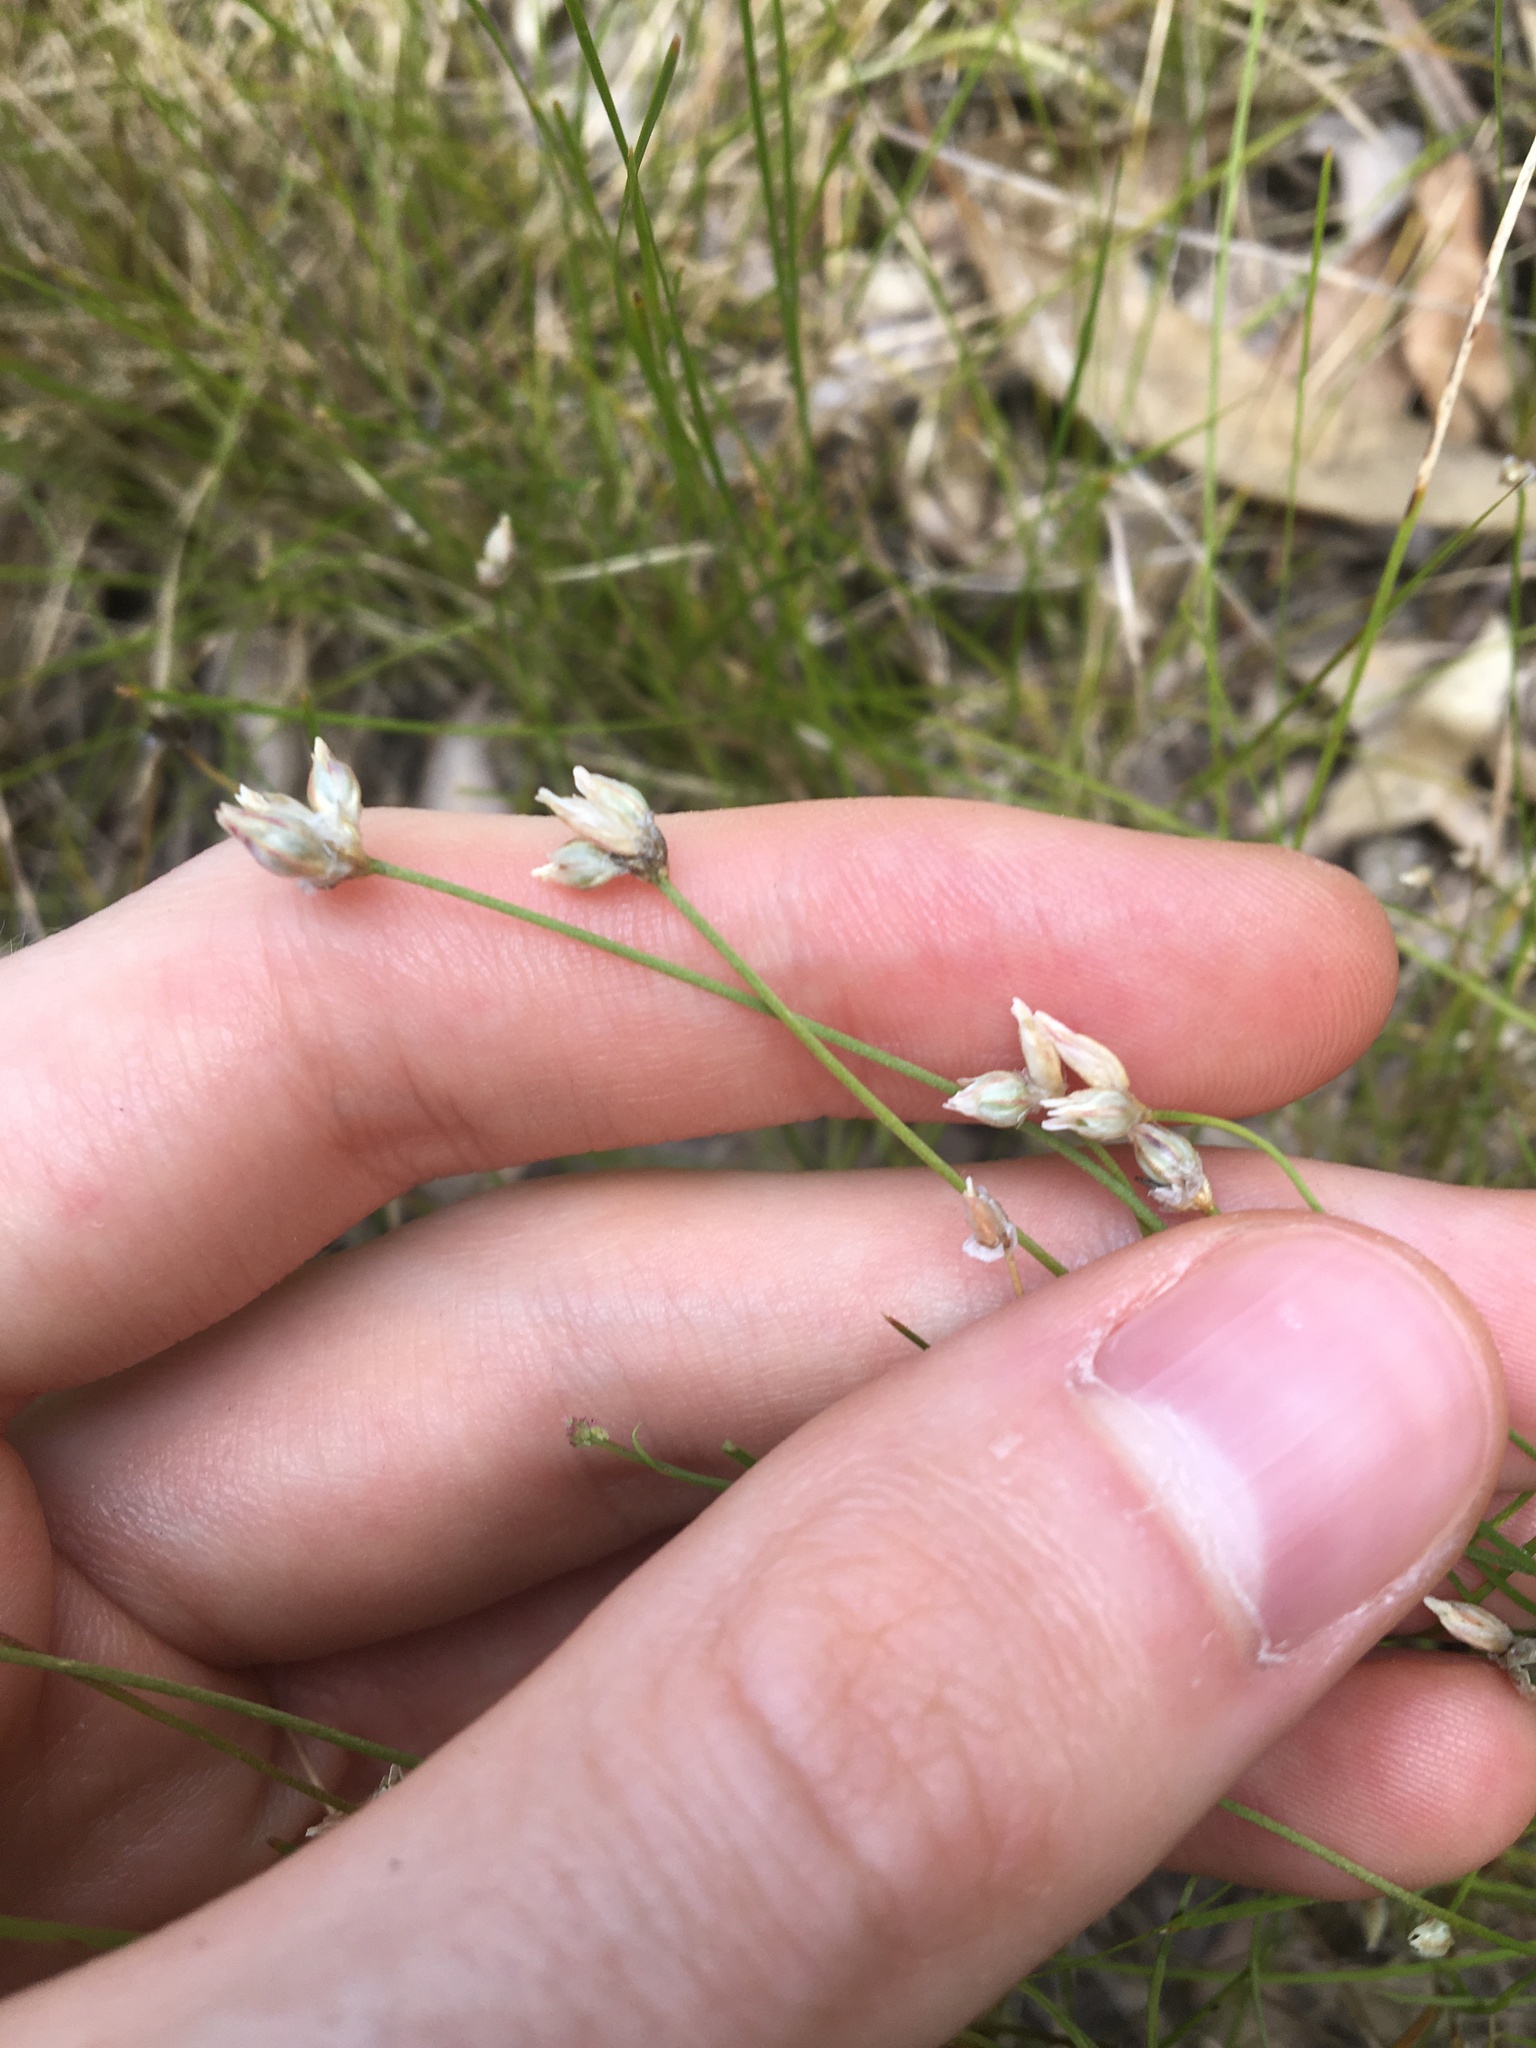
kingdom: Plantae
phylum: Tracheophyta
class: Liliopsida
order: Asparagales
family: Asparagaceae
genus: Laxmannia
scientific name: Laxmannia gracilis
